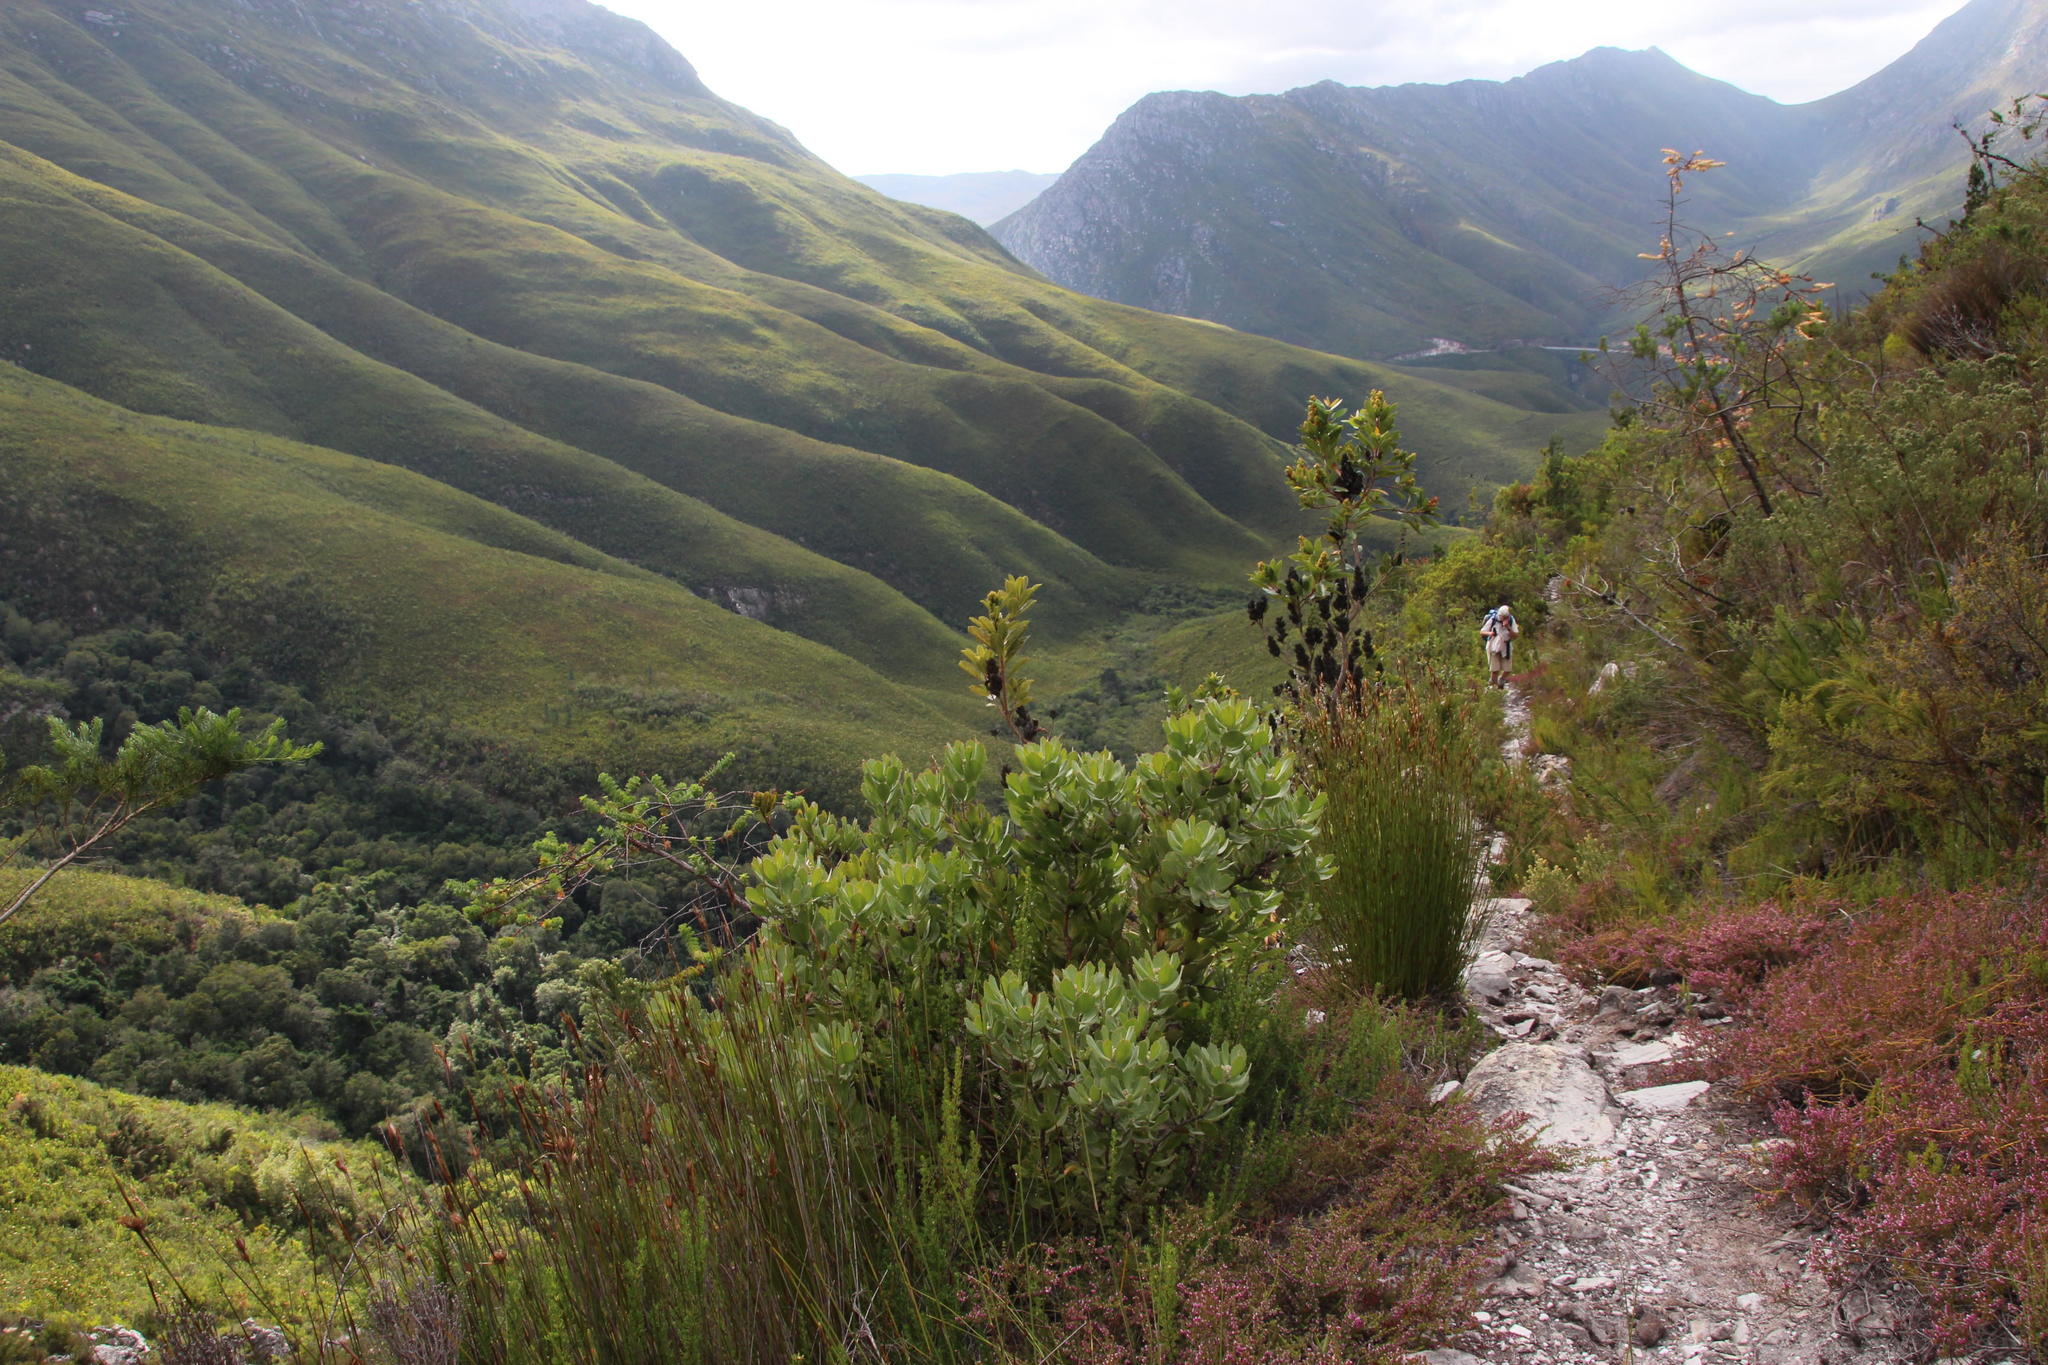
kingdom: Plantae
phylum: Tracheophyta
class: Magnoliopsida
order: Proteales
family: Proteaceae
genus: Leucospermum
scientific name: Leucospermum mundii
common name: Langeberg pincushion
